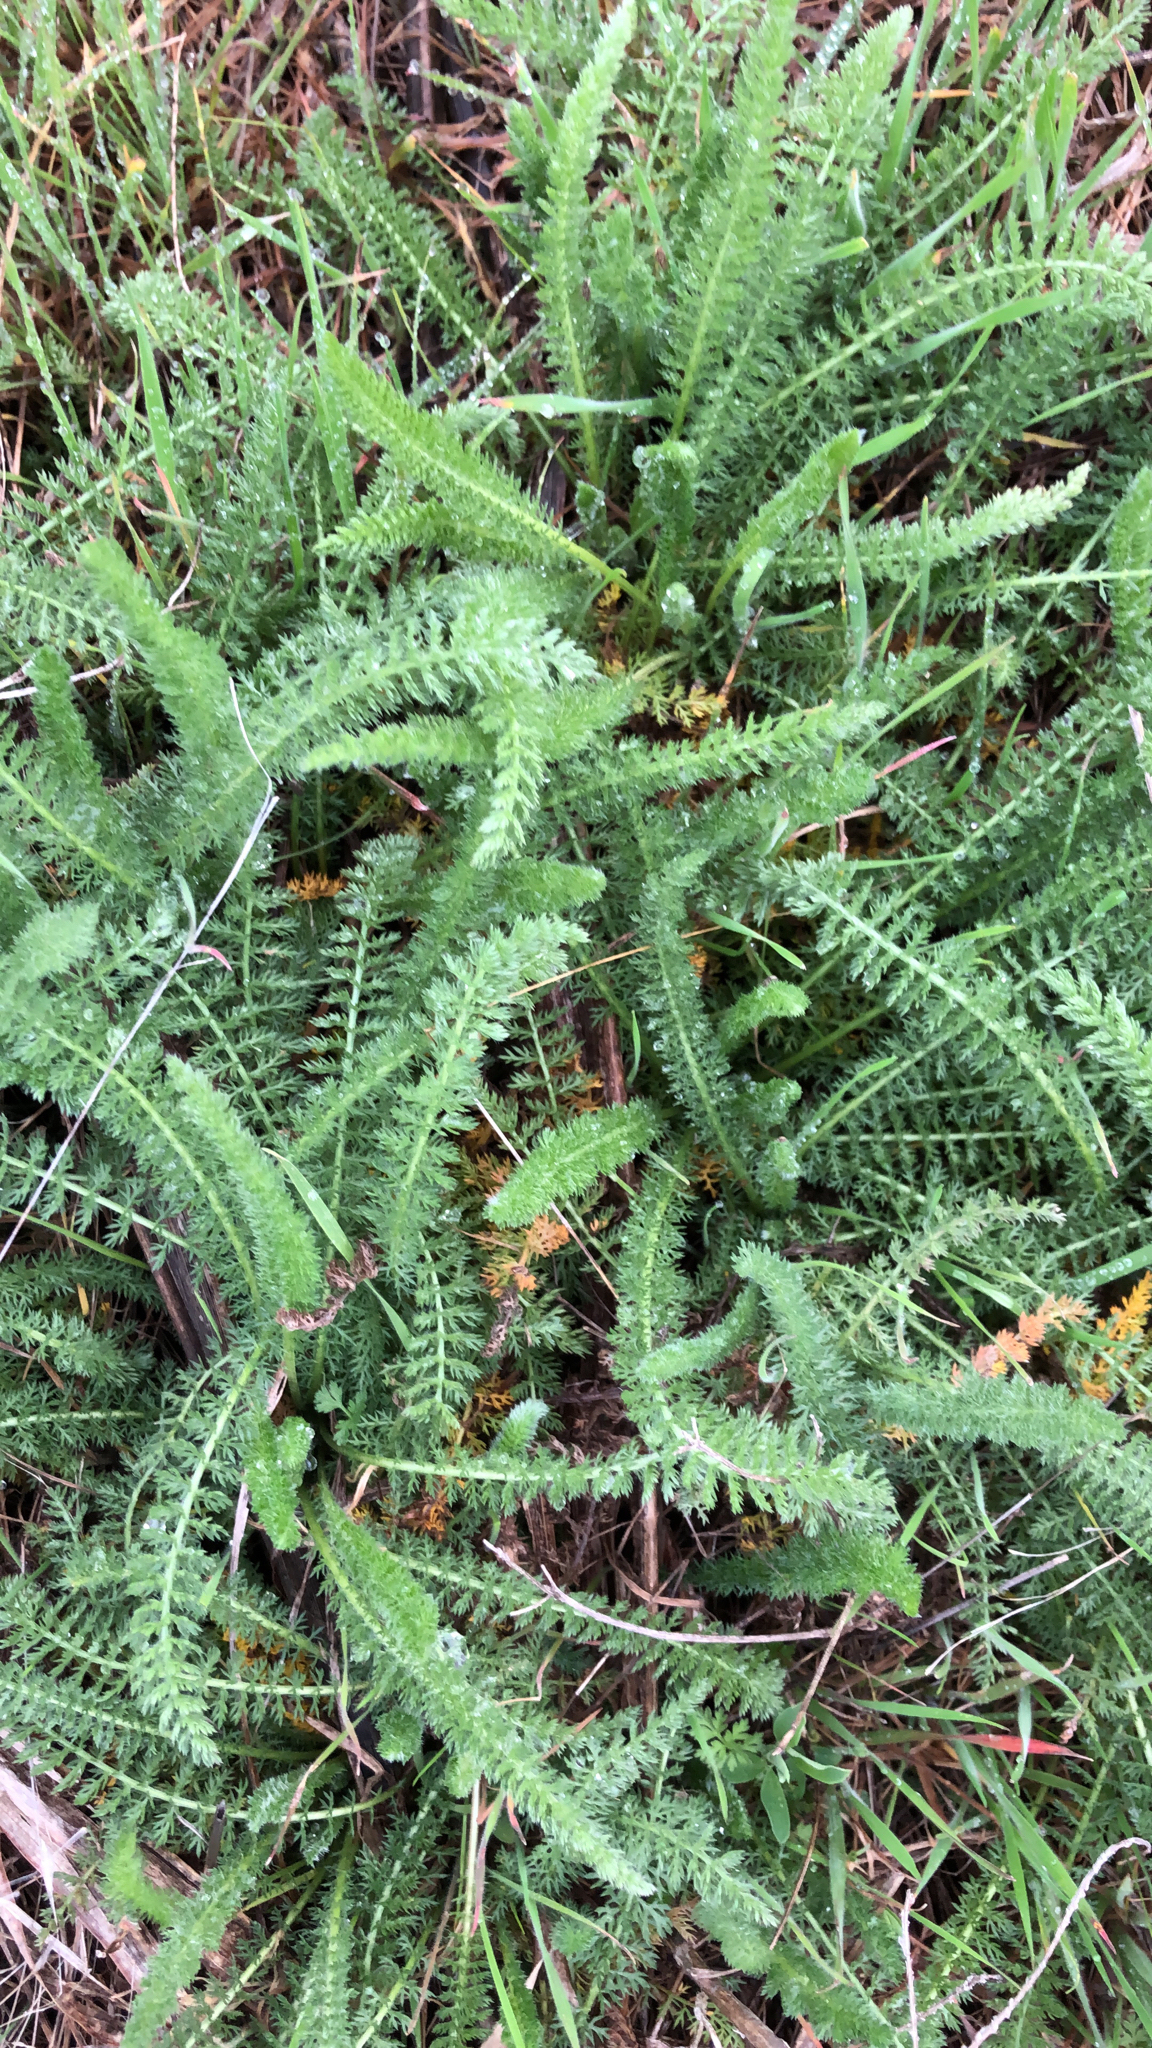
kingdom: Plantae
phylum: Tracheophyta
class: Magnoliopsida
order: Asterales
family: Asteraceae
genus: Achillea
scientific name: Achillea millefolium
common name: Yarrow
